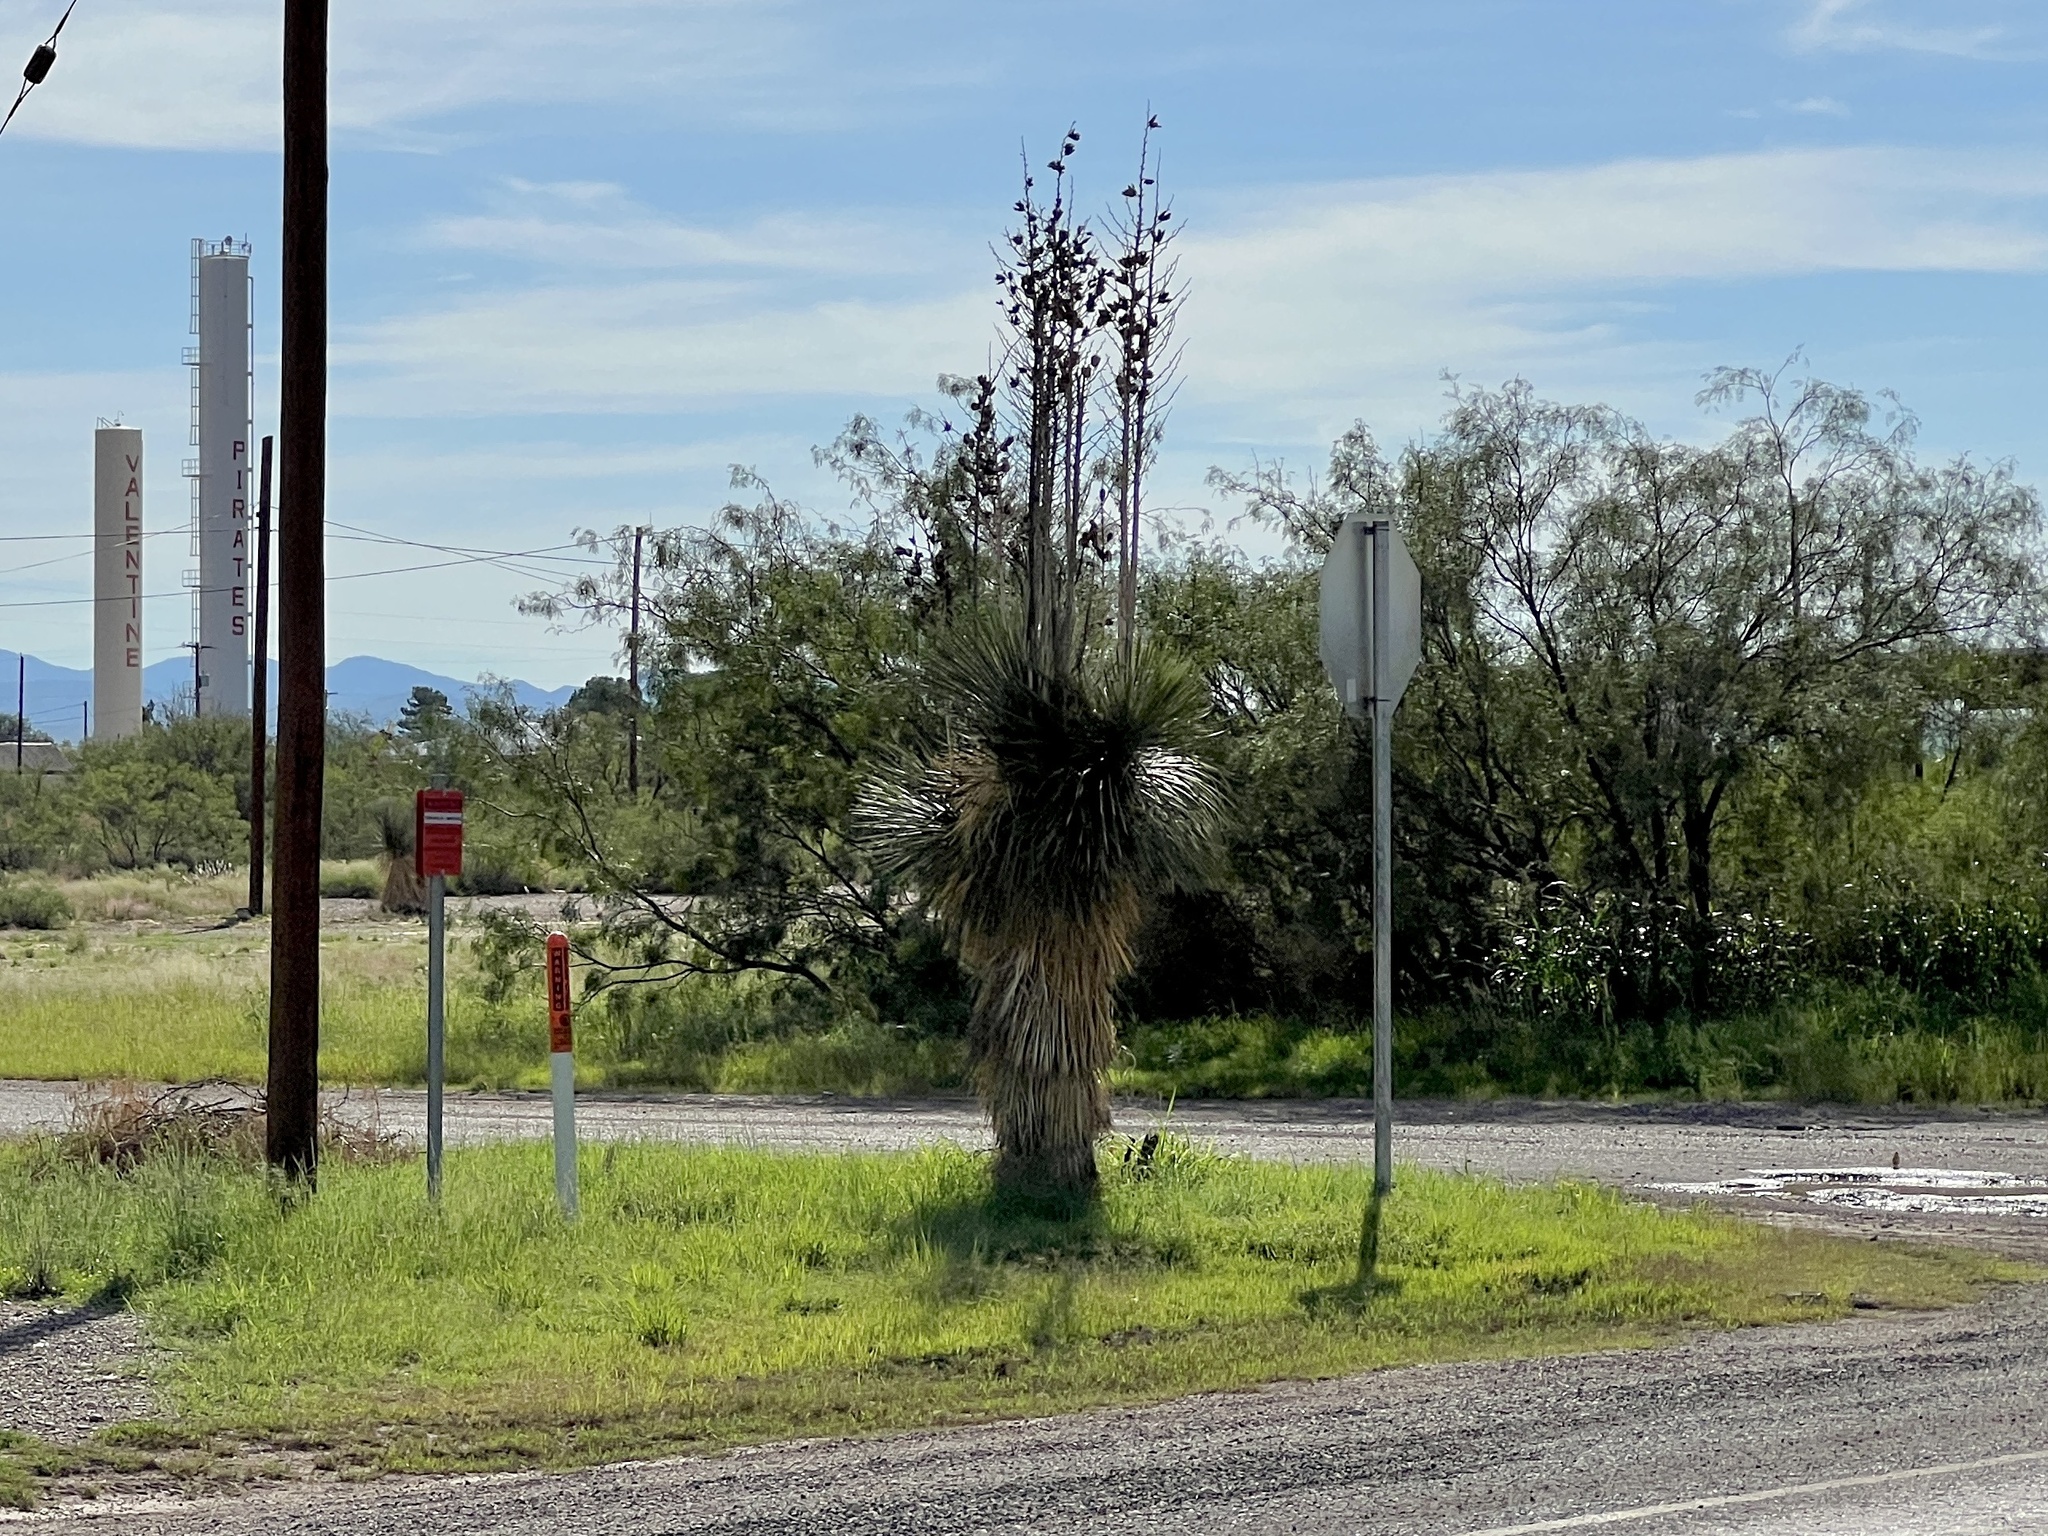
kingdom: Plantae
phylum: Tracheophyta
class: Liliopsida
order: Asparagales
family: Asparagaceae
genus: Yucca
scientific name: Yucca elata
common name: Palmella
